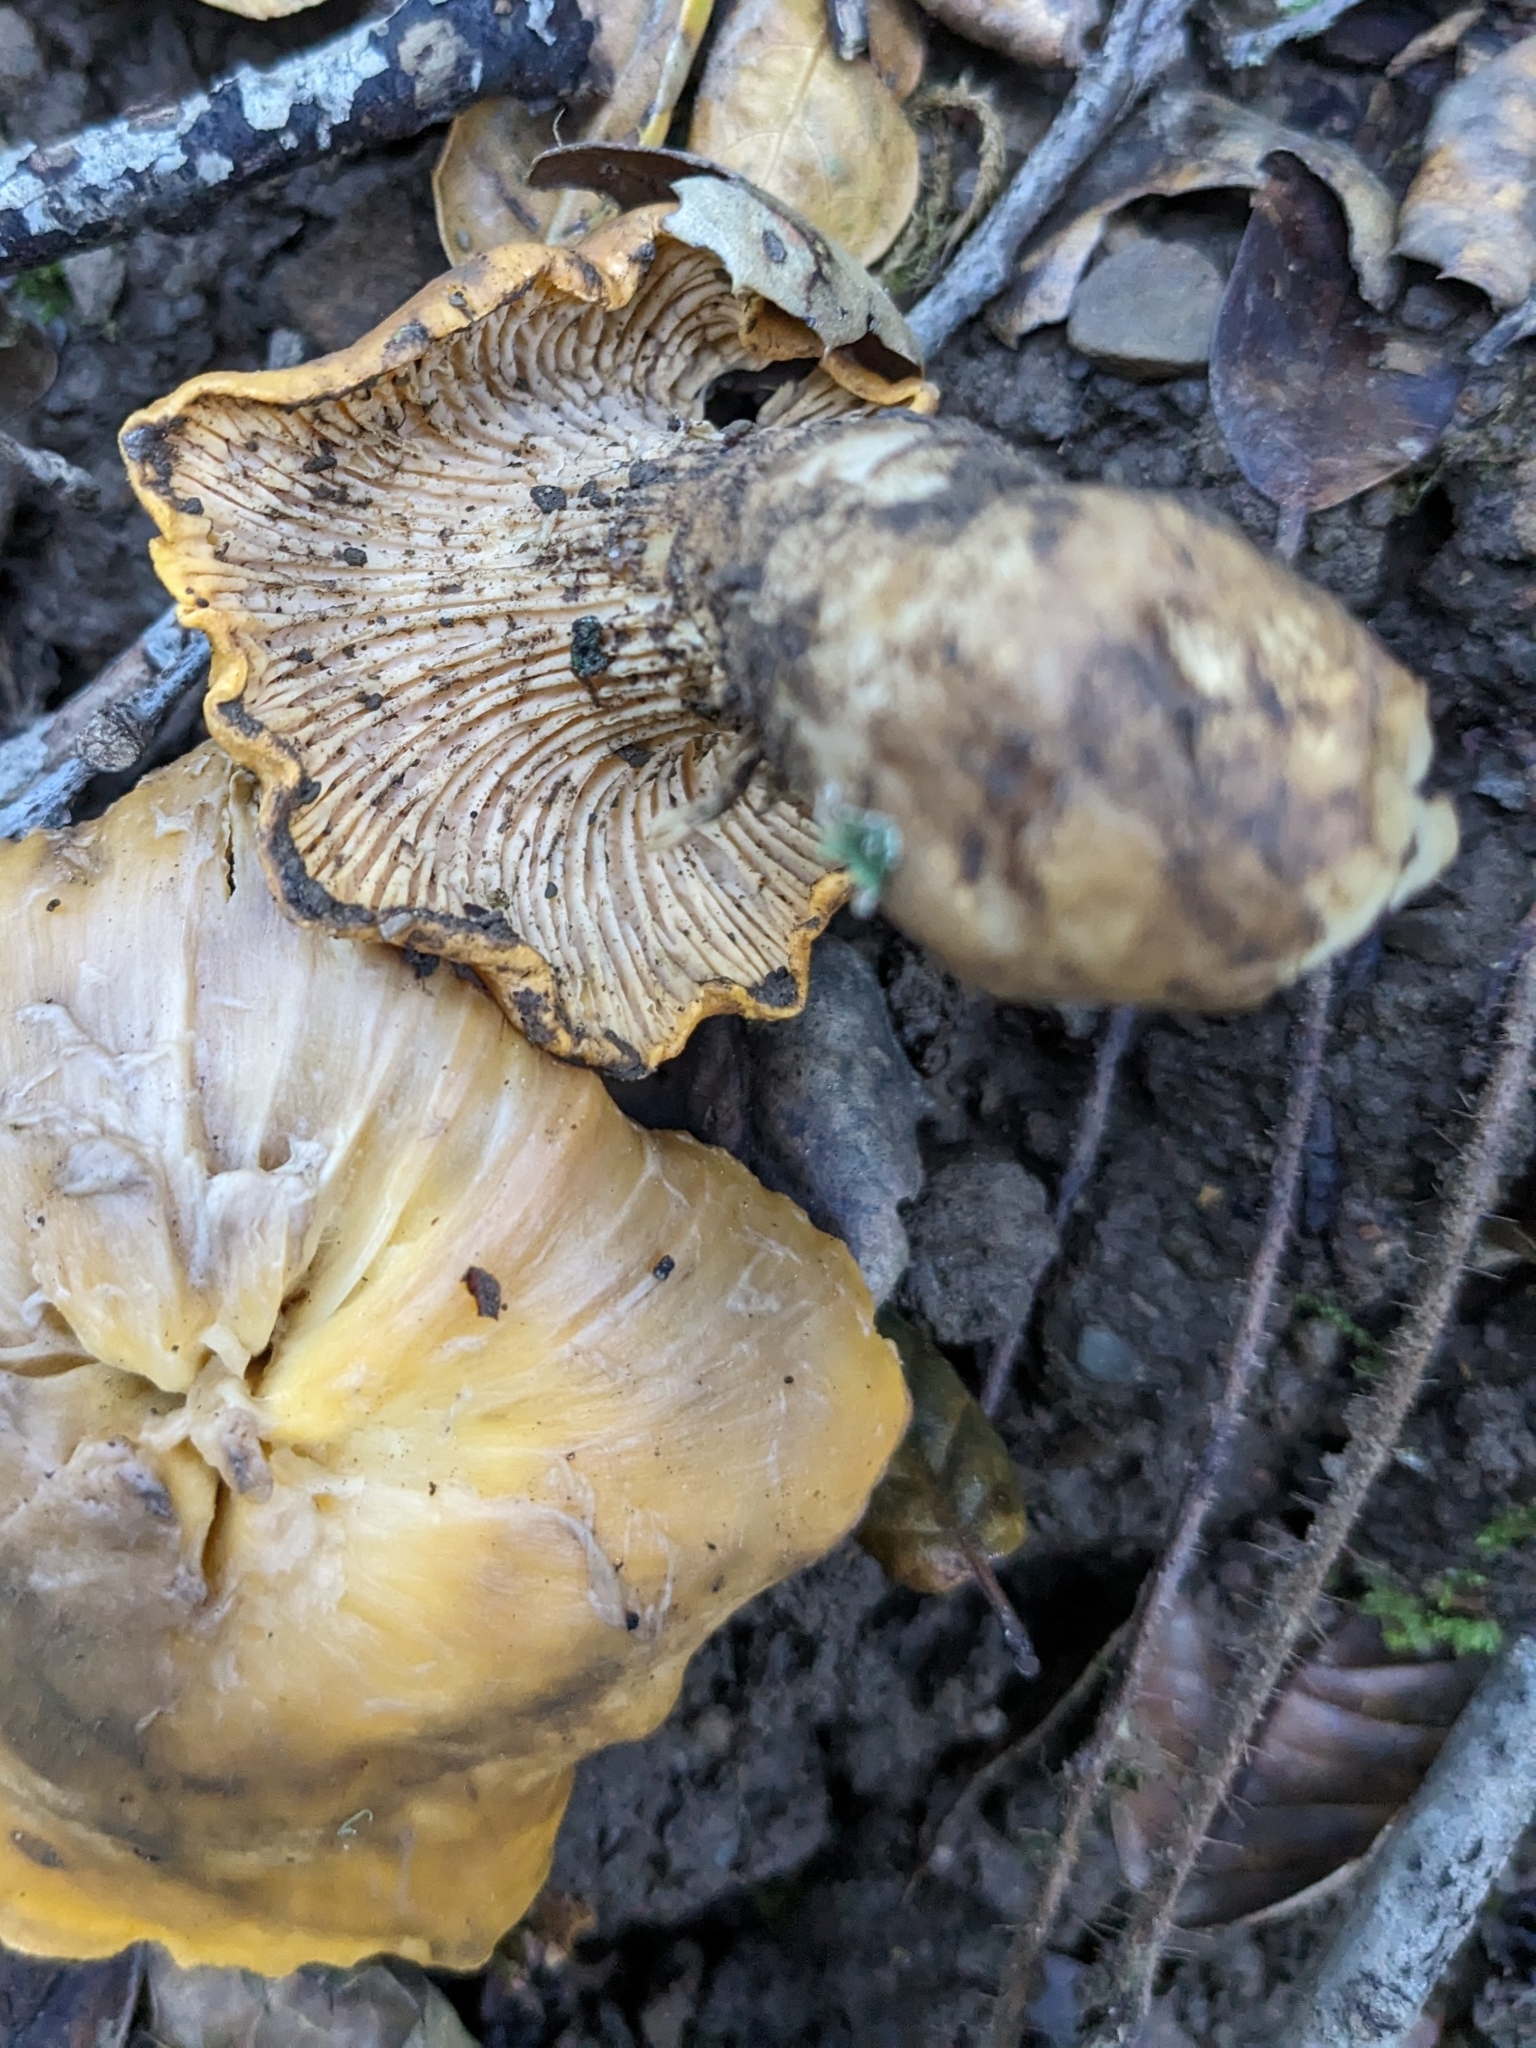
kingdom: Fungi
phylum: Basidiomycota
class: Agaricomycetes
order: Cantharellales
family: Hydnaceae
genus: Cantharellus
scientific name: Cantharellus californicus
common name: California golden chanterelle
